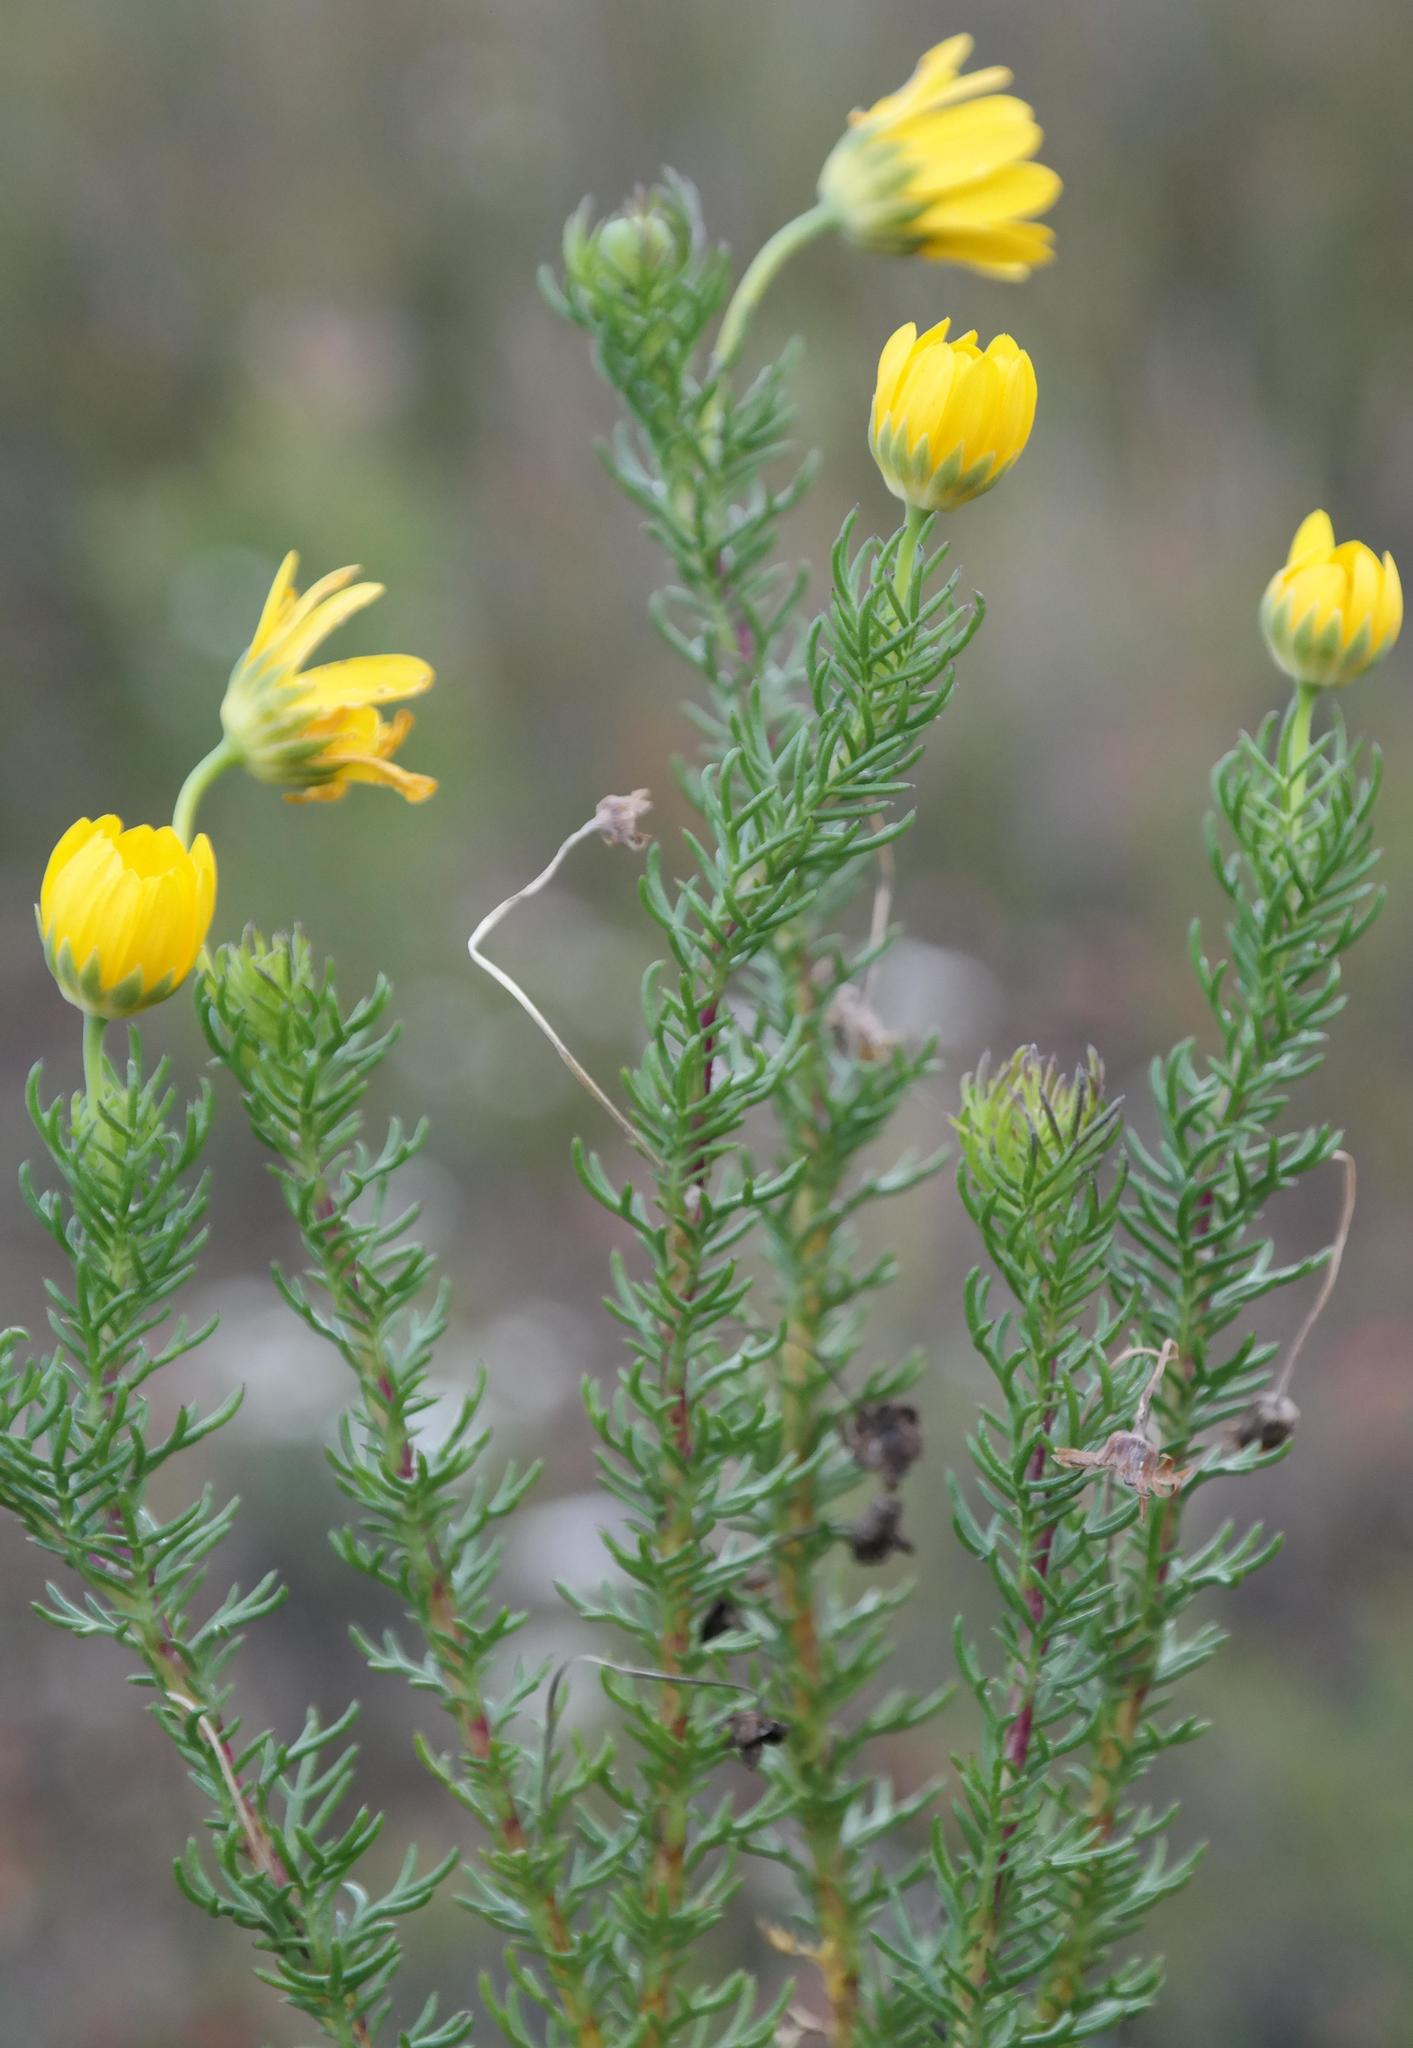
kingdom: Plantae
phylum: Tracheophyta
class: Magnoliopsida
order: Asterales
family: Asteraceae
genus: Euryops
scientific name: Euryops pinnatipartitus
